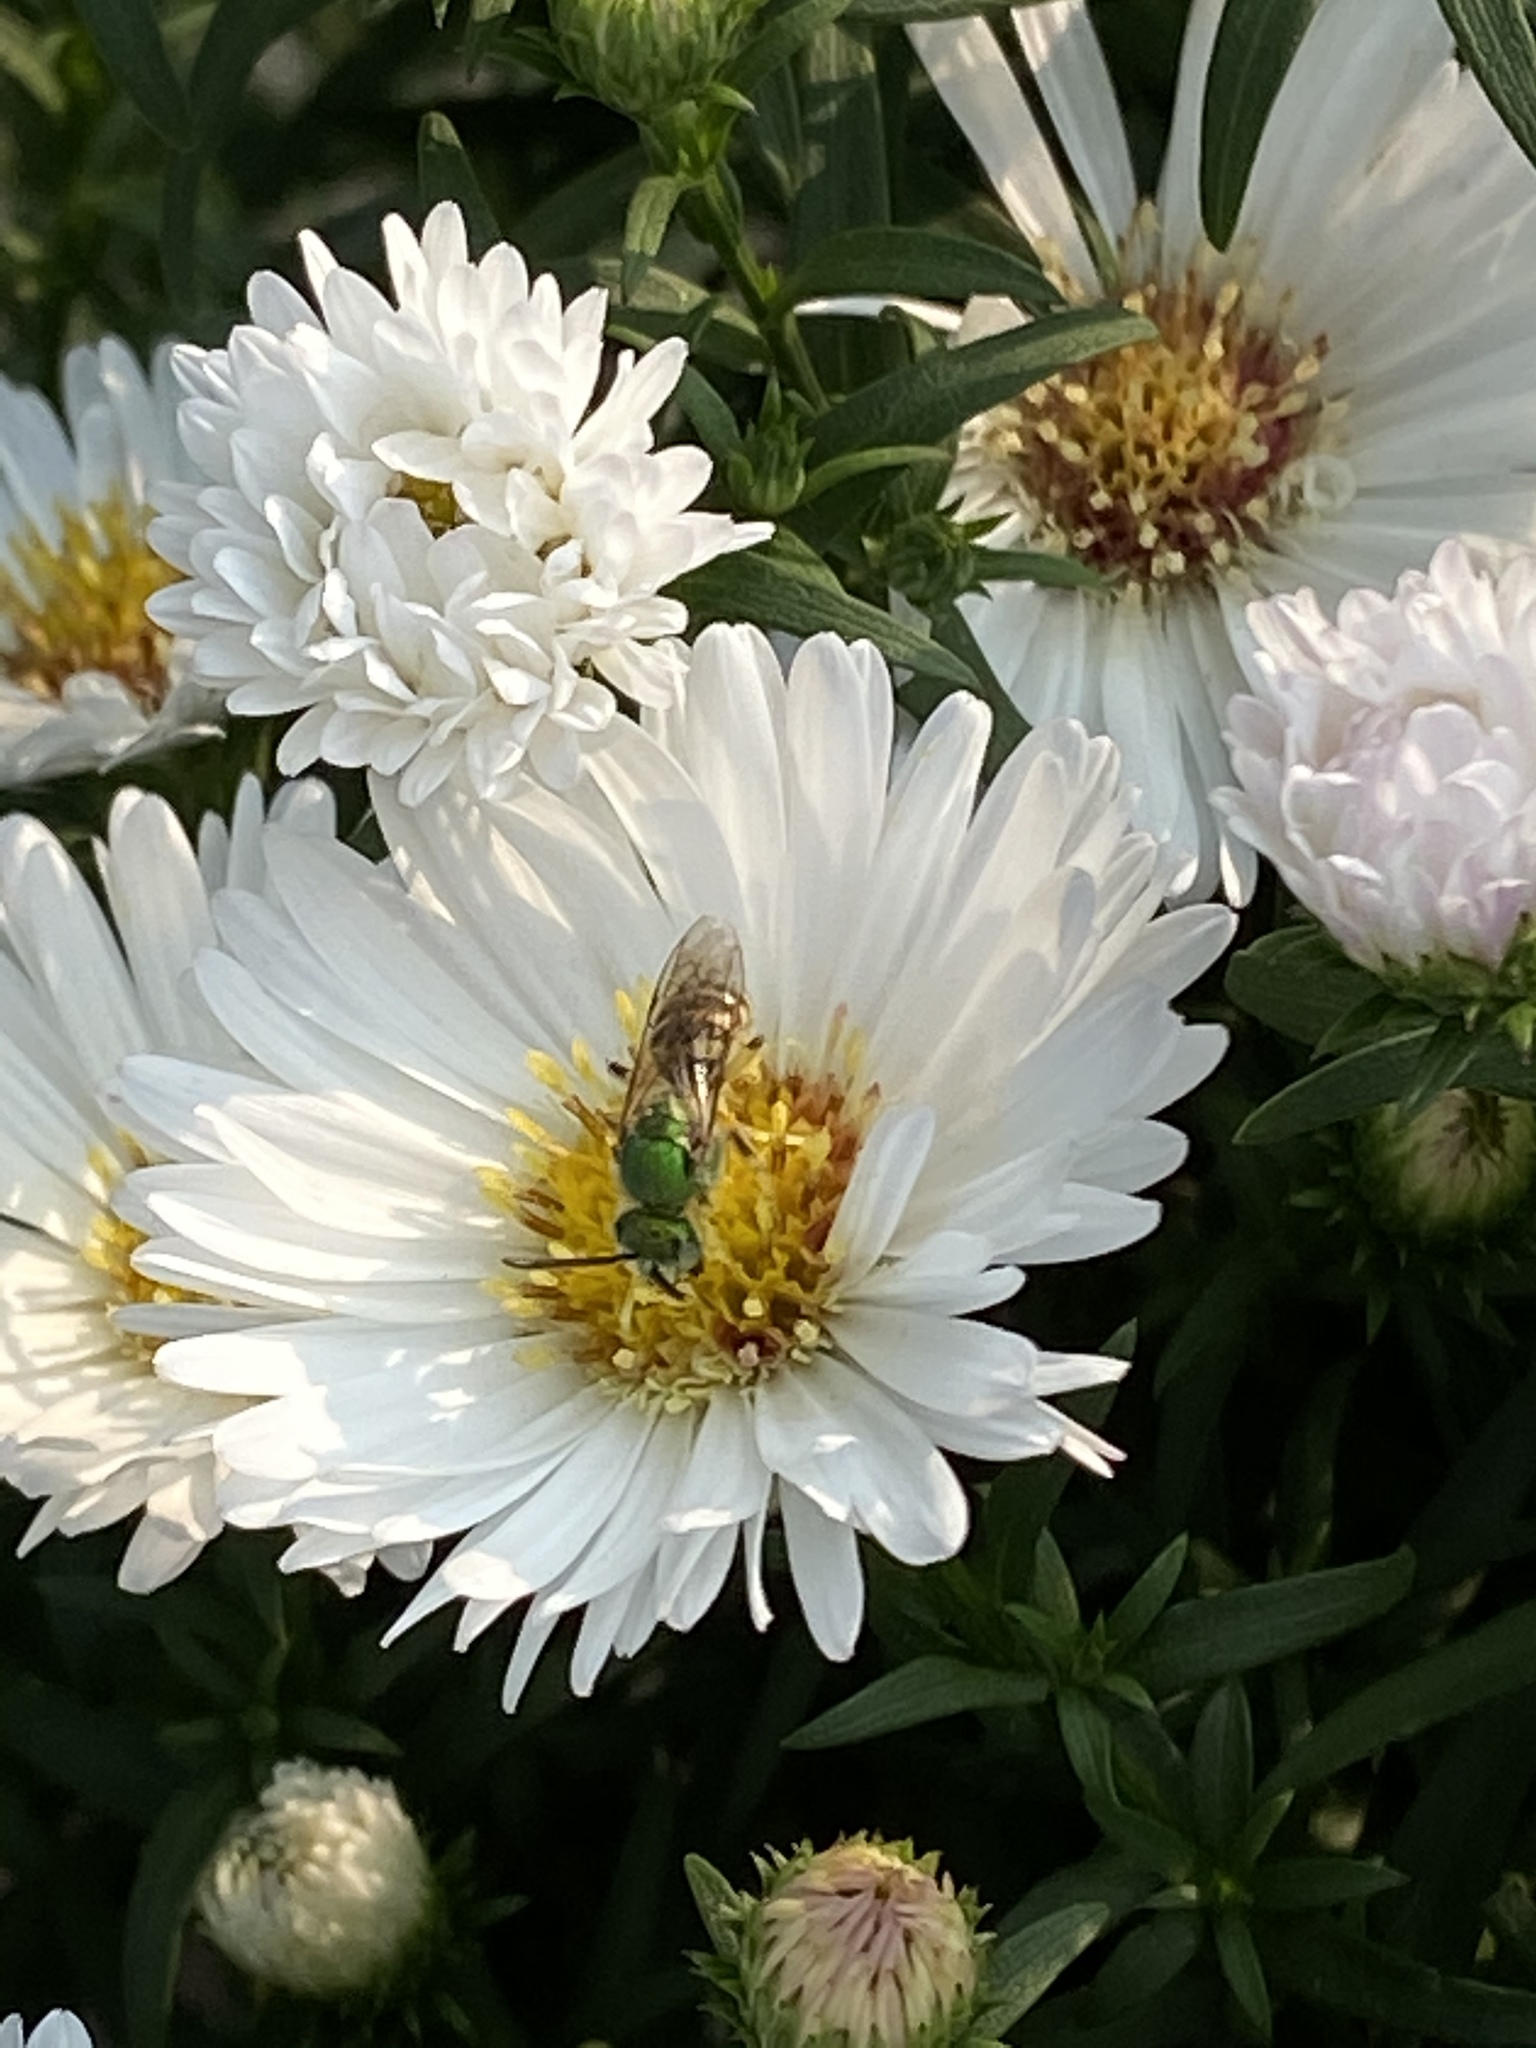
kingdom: Animalia
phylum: Arthropoda
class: Insecta
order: Hymenoptera
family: Halictidae
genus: Agapostemon
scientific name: Agapostemon virescens
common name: Bicolored striped sweat bee
